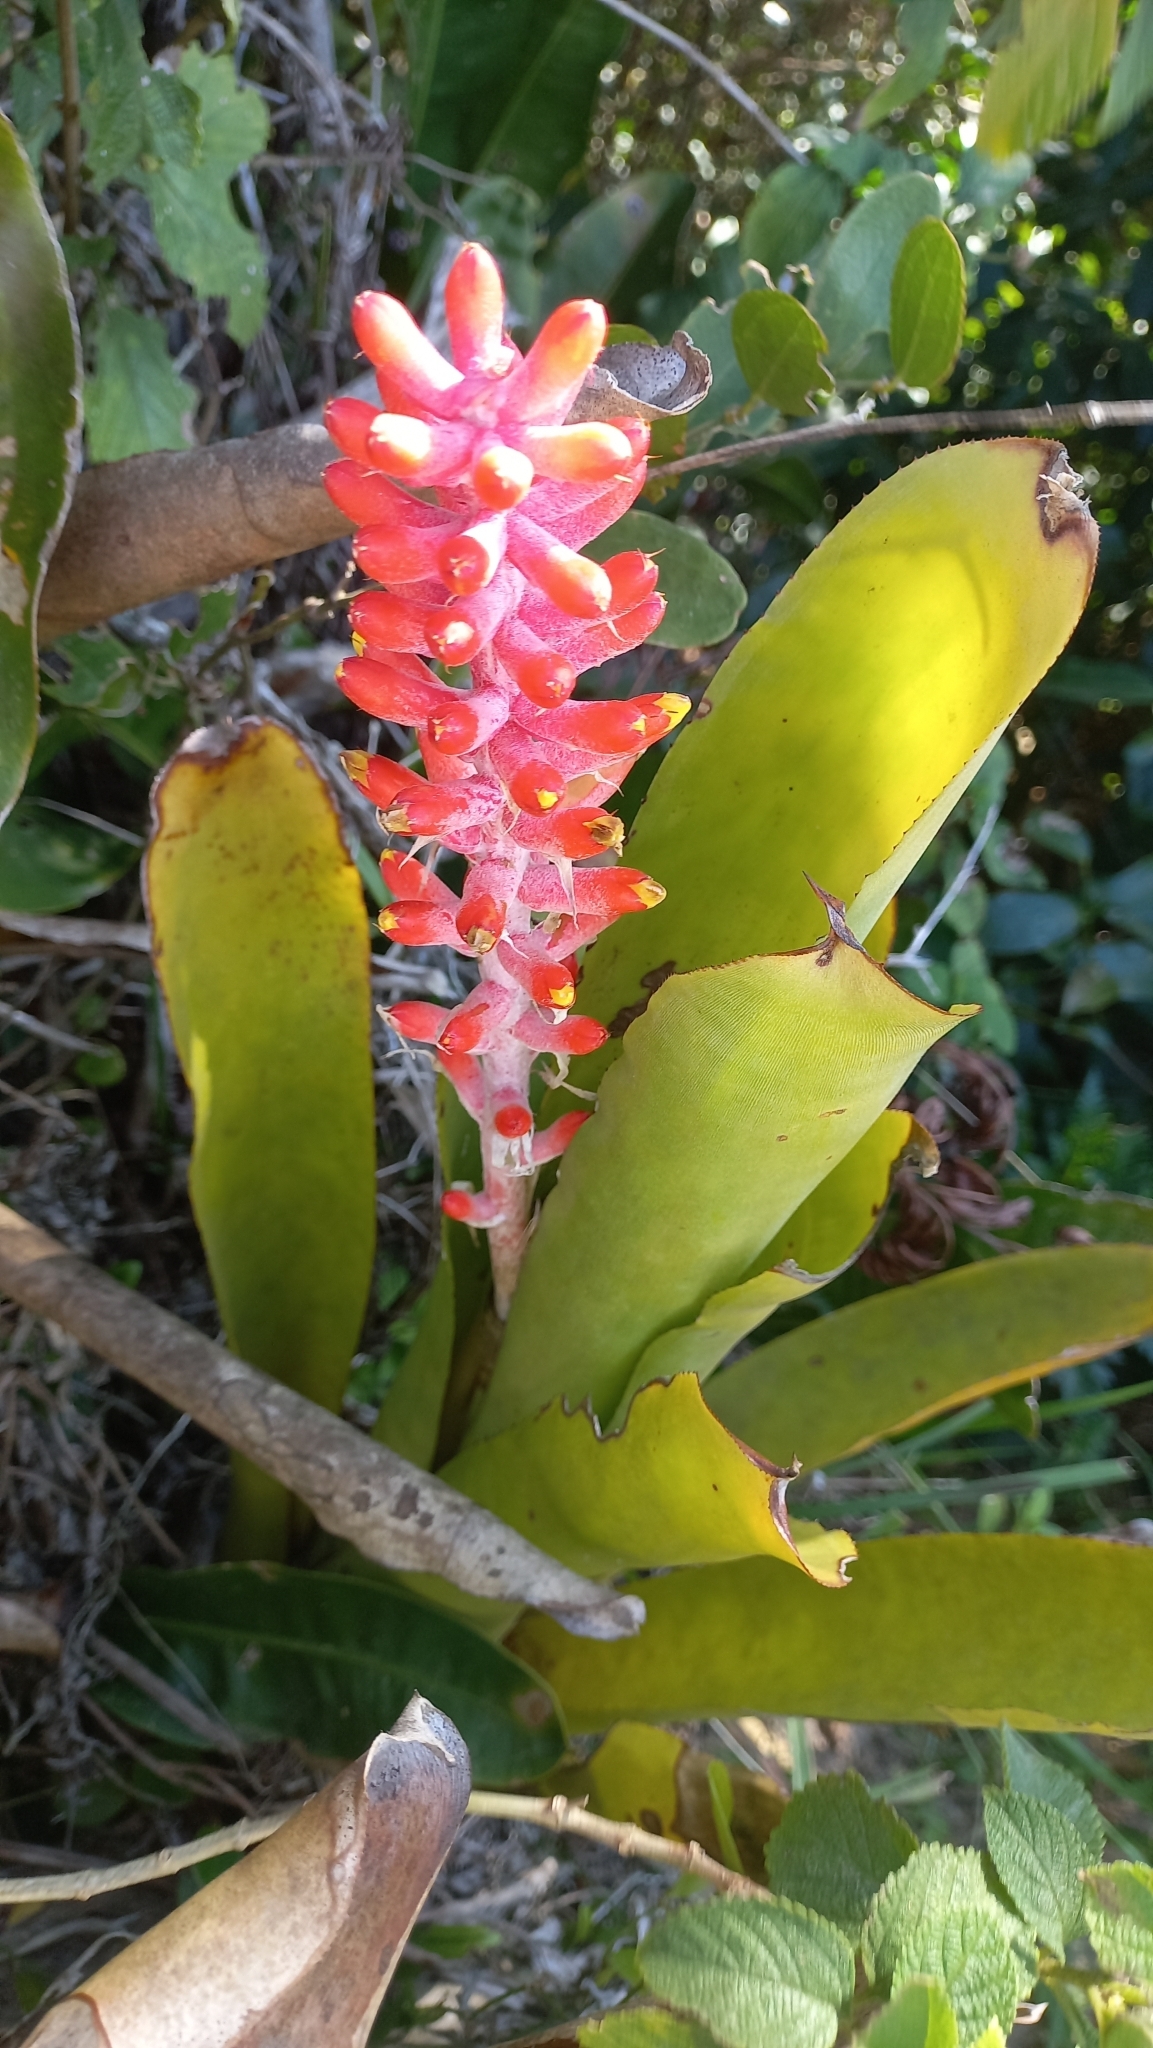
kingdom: Plantae
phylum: Tracheophyta
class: Liliopsida
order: Poales
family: Bromeliaceae
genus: Aechmea
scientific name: Aechmea kertesziae
